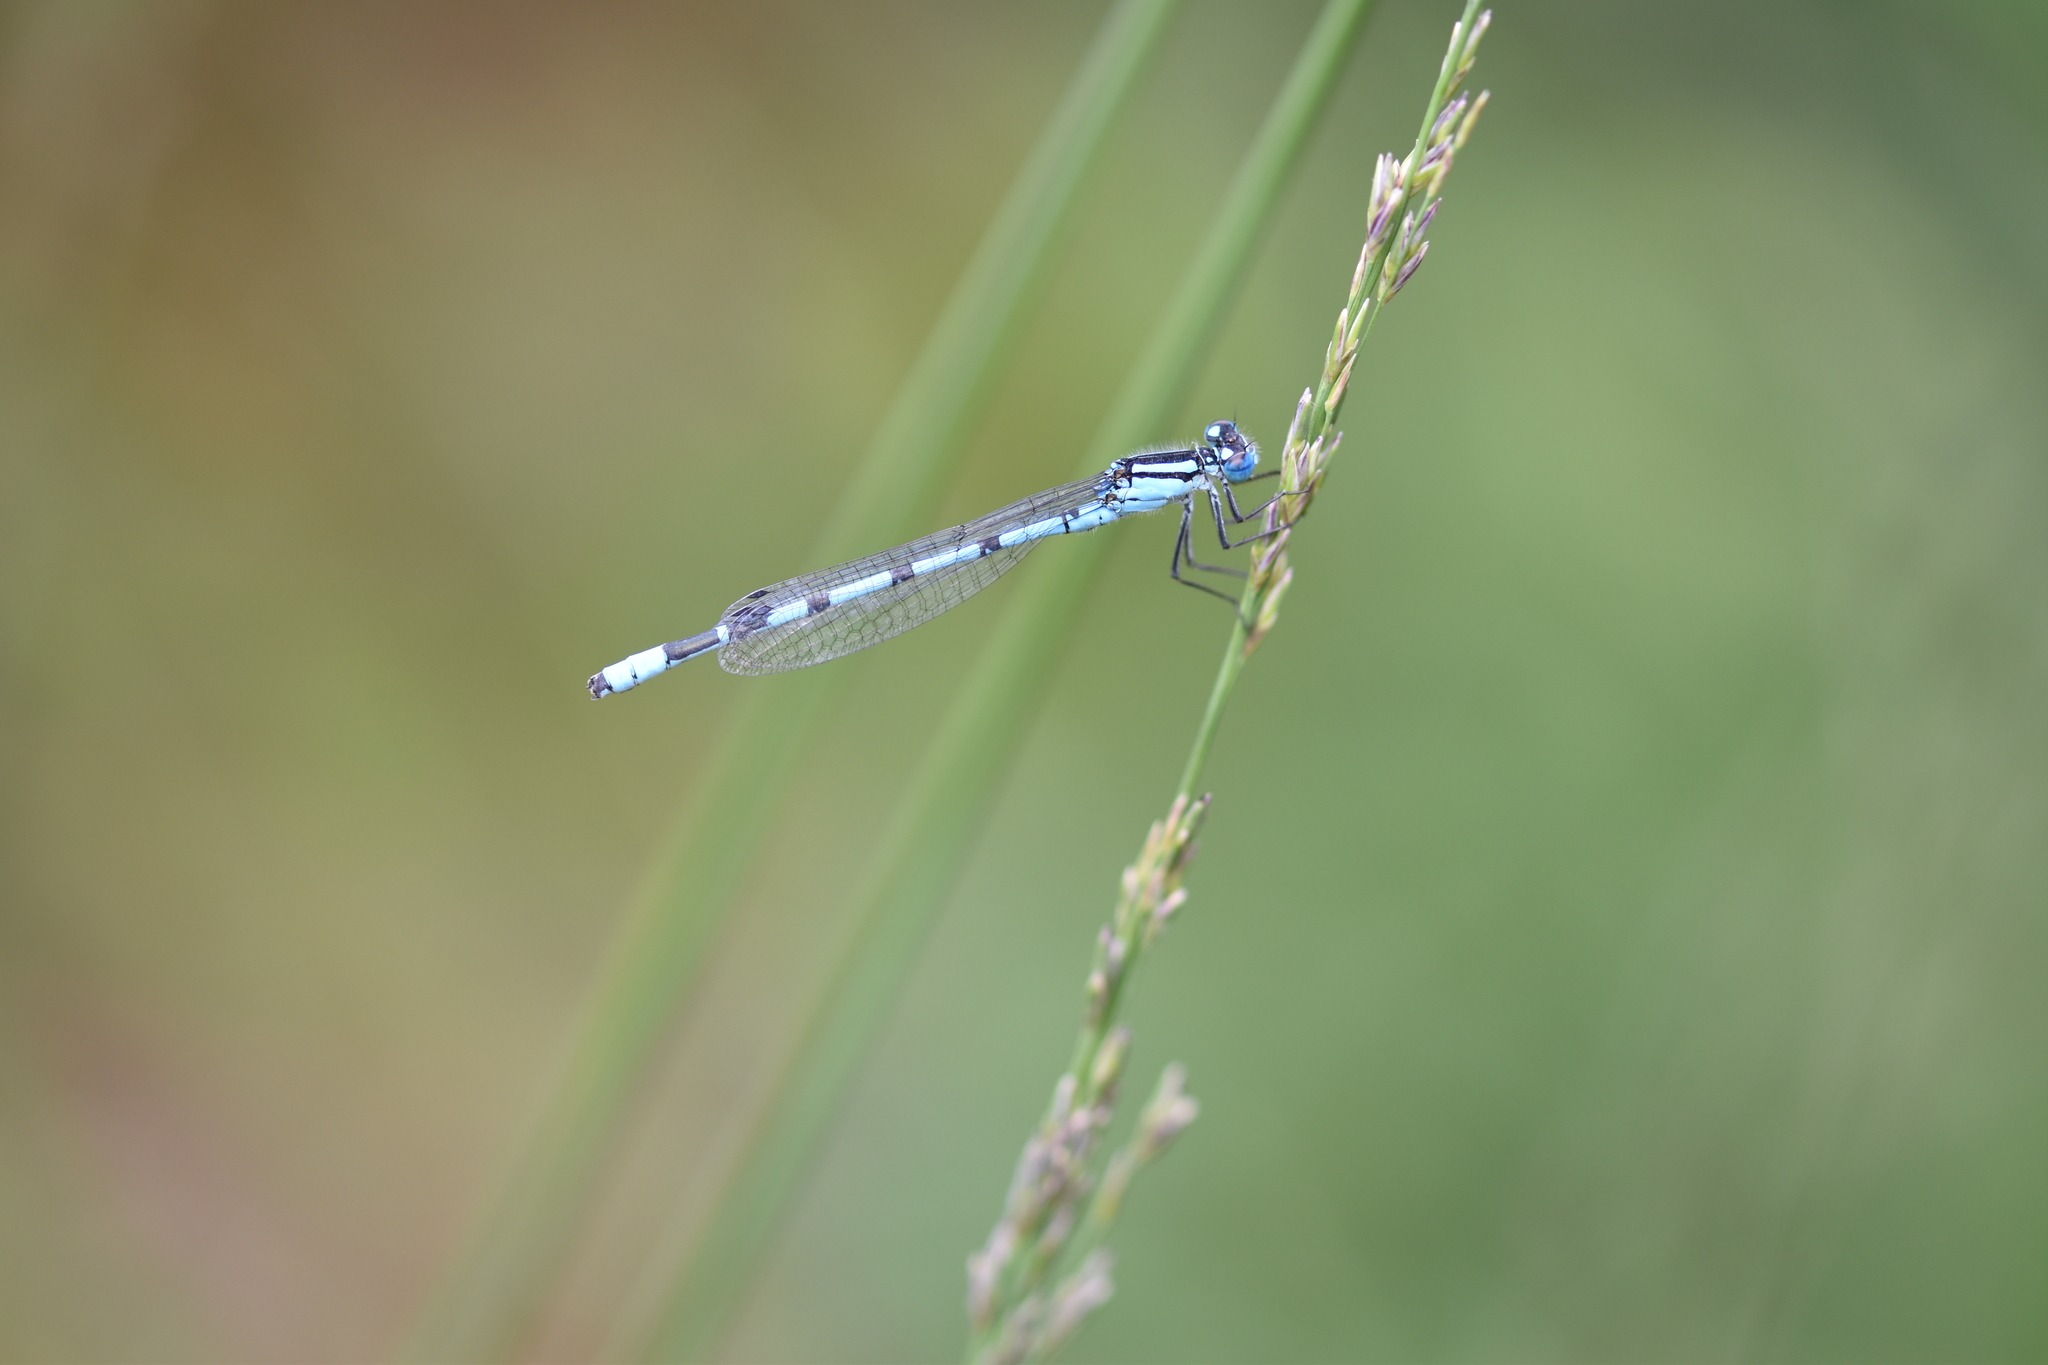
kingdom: Animalia
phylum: Arthropoda
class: Insecta
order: Odonata
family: Coenagrionidae
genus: Enallagma
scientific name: Enallagma cyathigerum
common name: Common blue damselfly
